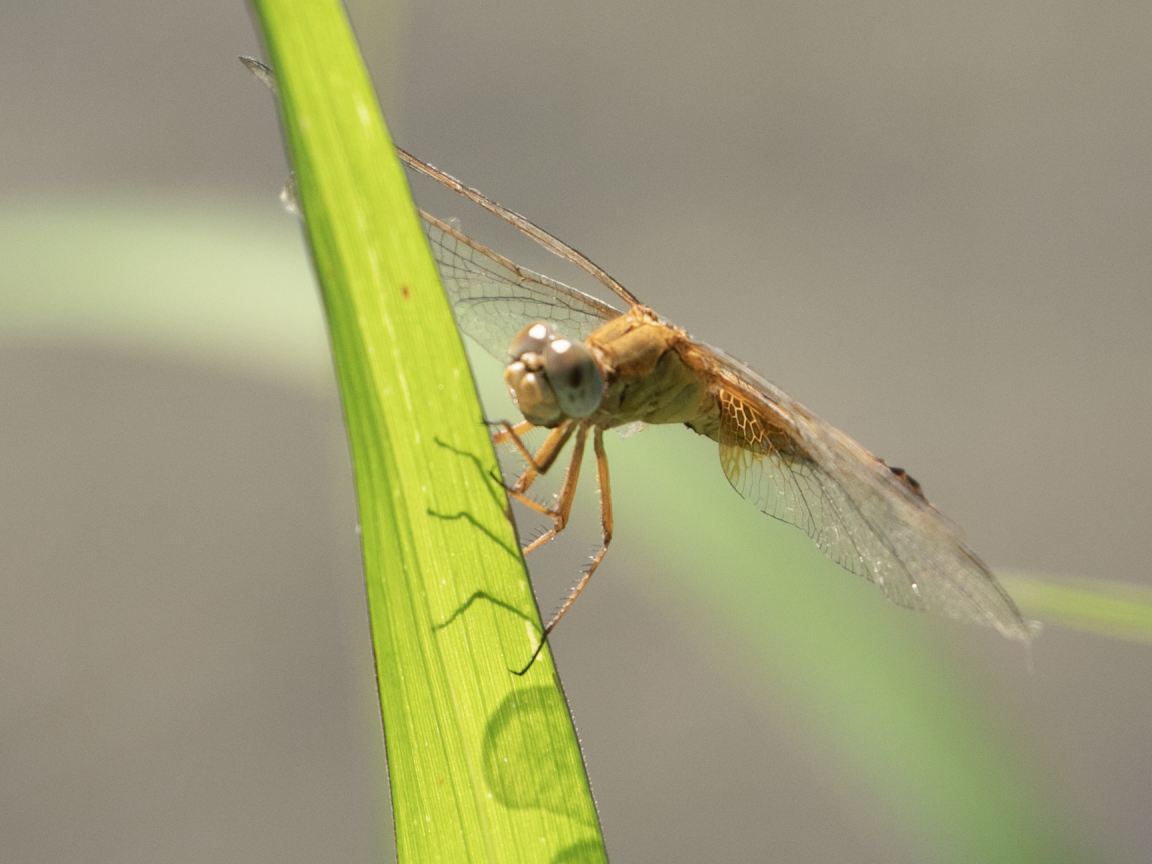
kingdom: Animalia
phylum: Arthropoda
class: Insecta
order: Odonata
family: Libellulidae
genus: Crocothemis
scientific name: Crocothemis erythraea
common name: Scarlet dragonfly
